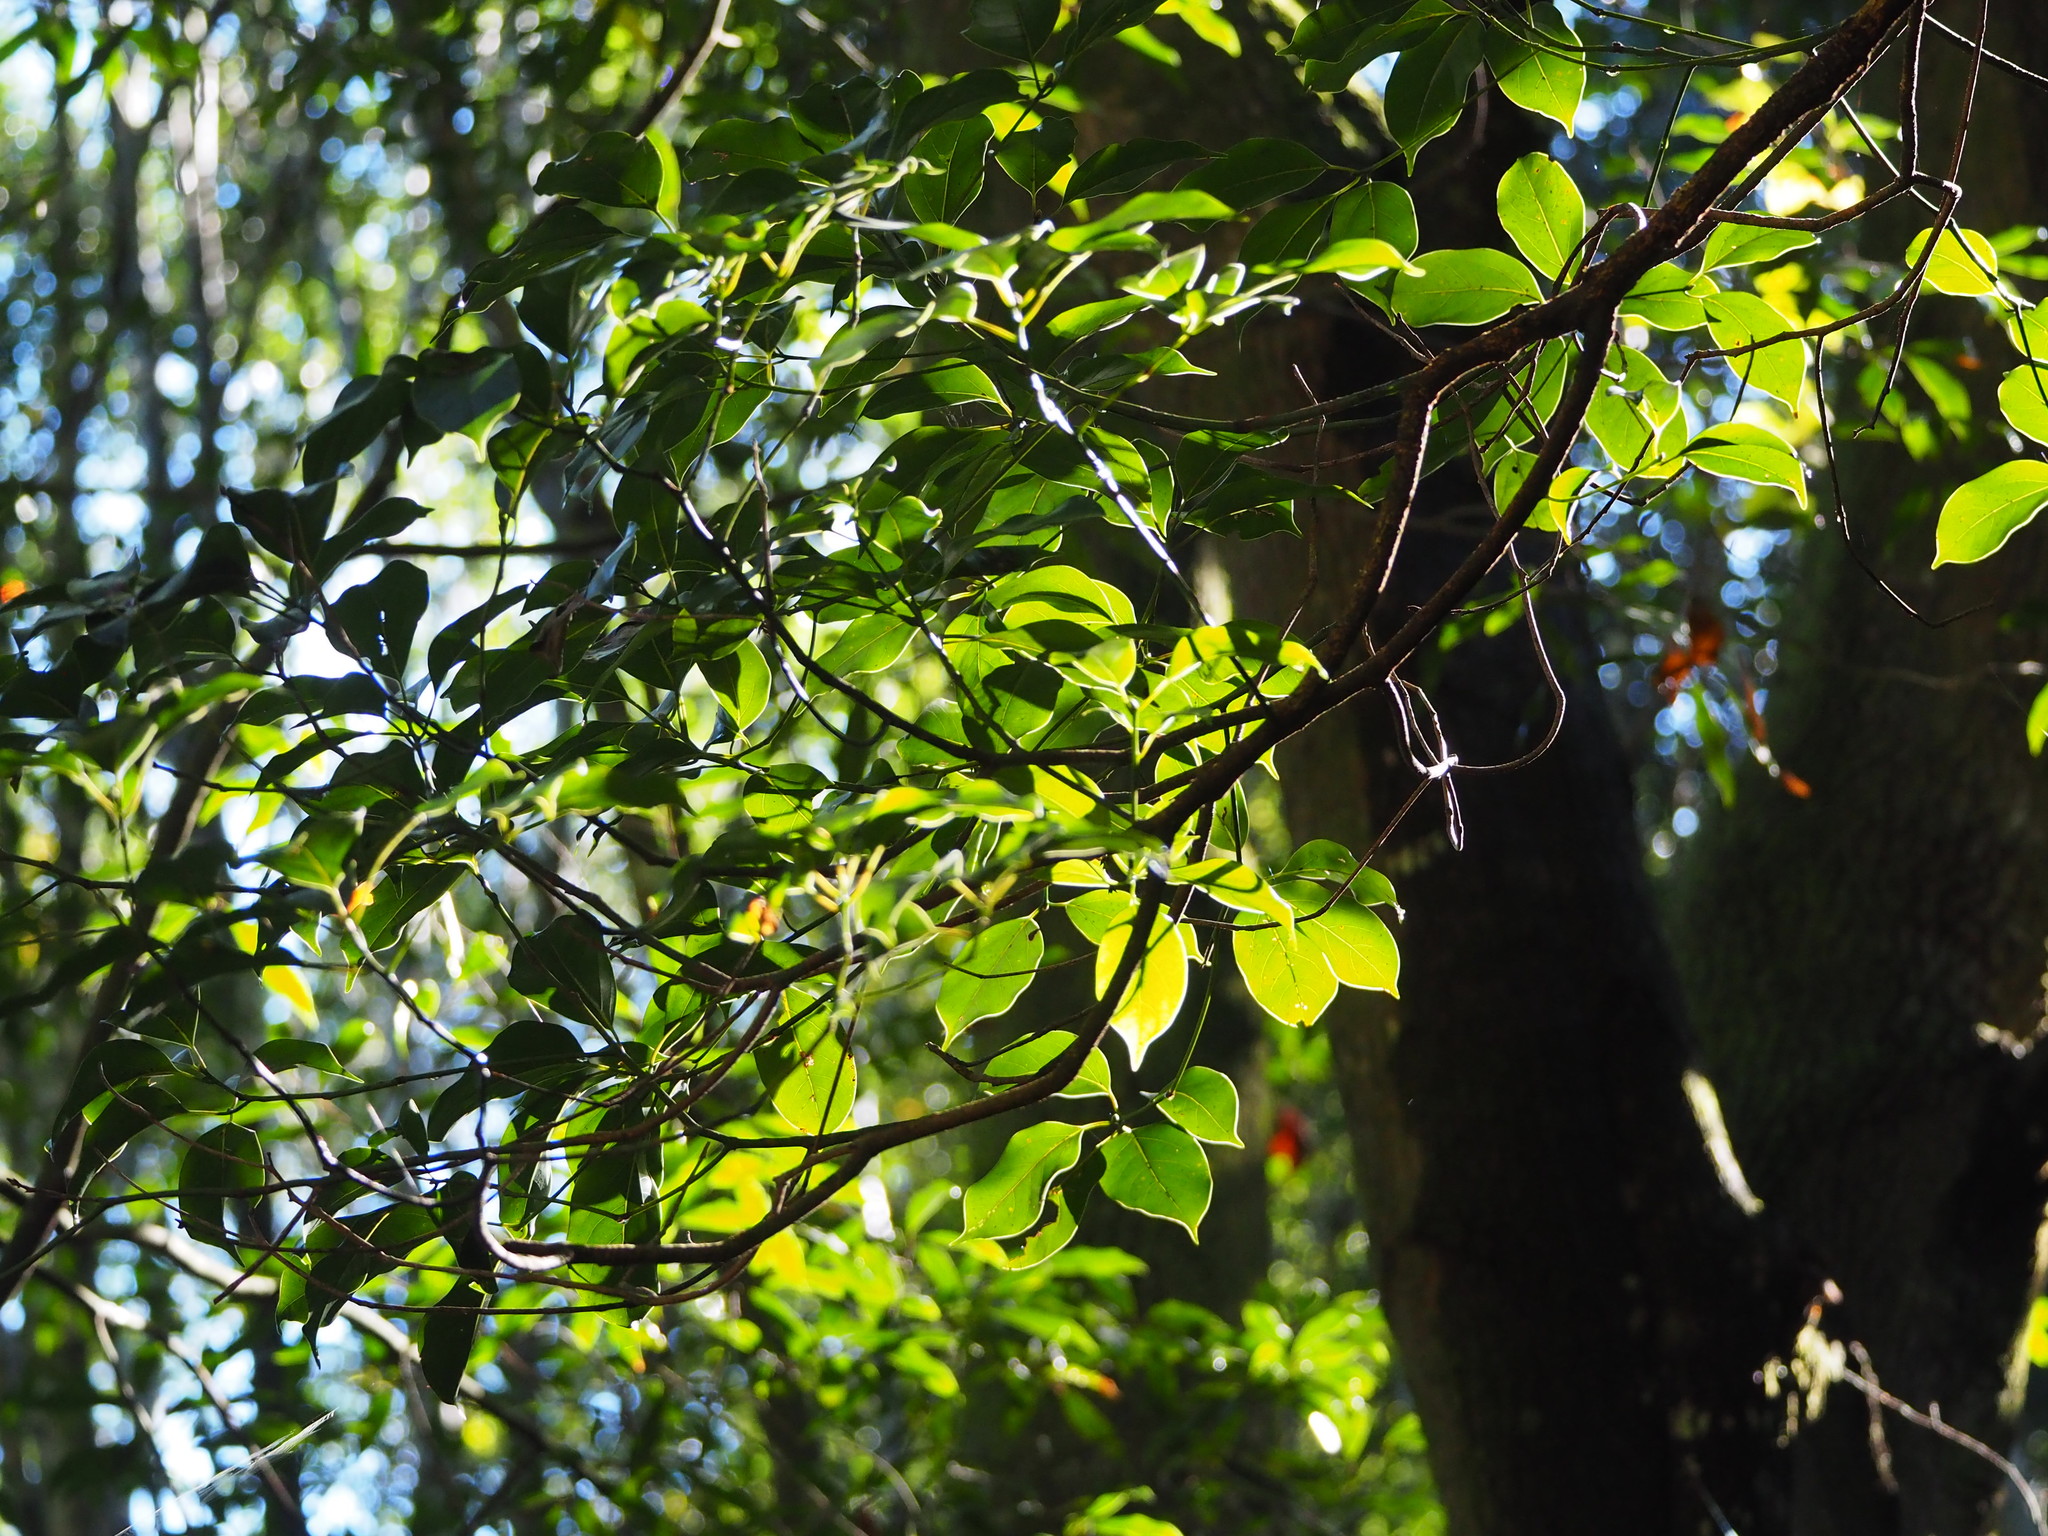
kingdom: Plantae
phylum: Tracheophyta
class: Magnoliopsida
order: Laurales
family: Lauraceae
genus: Cinnamomum
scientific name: Cinnamomum micranthum
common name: Chinese-sassafras
